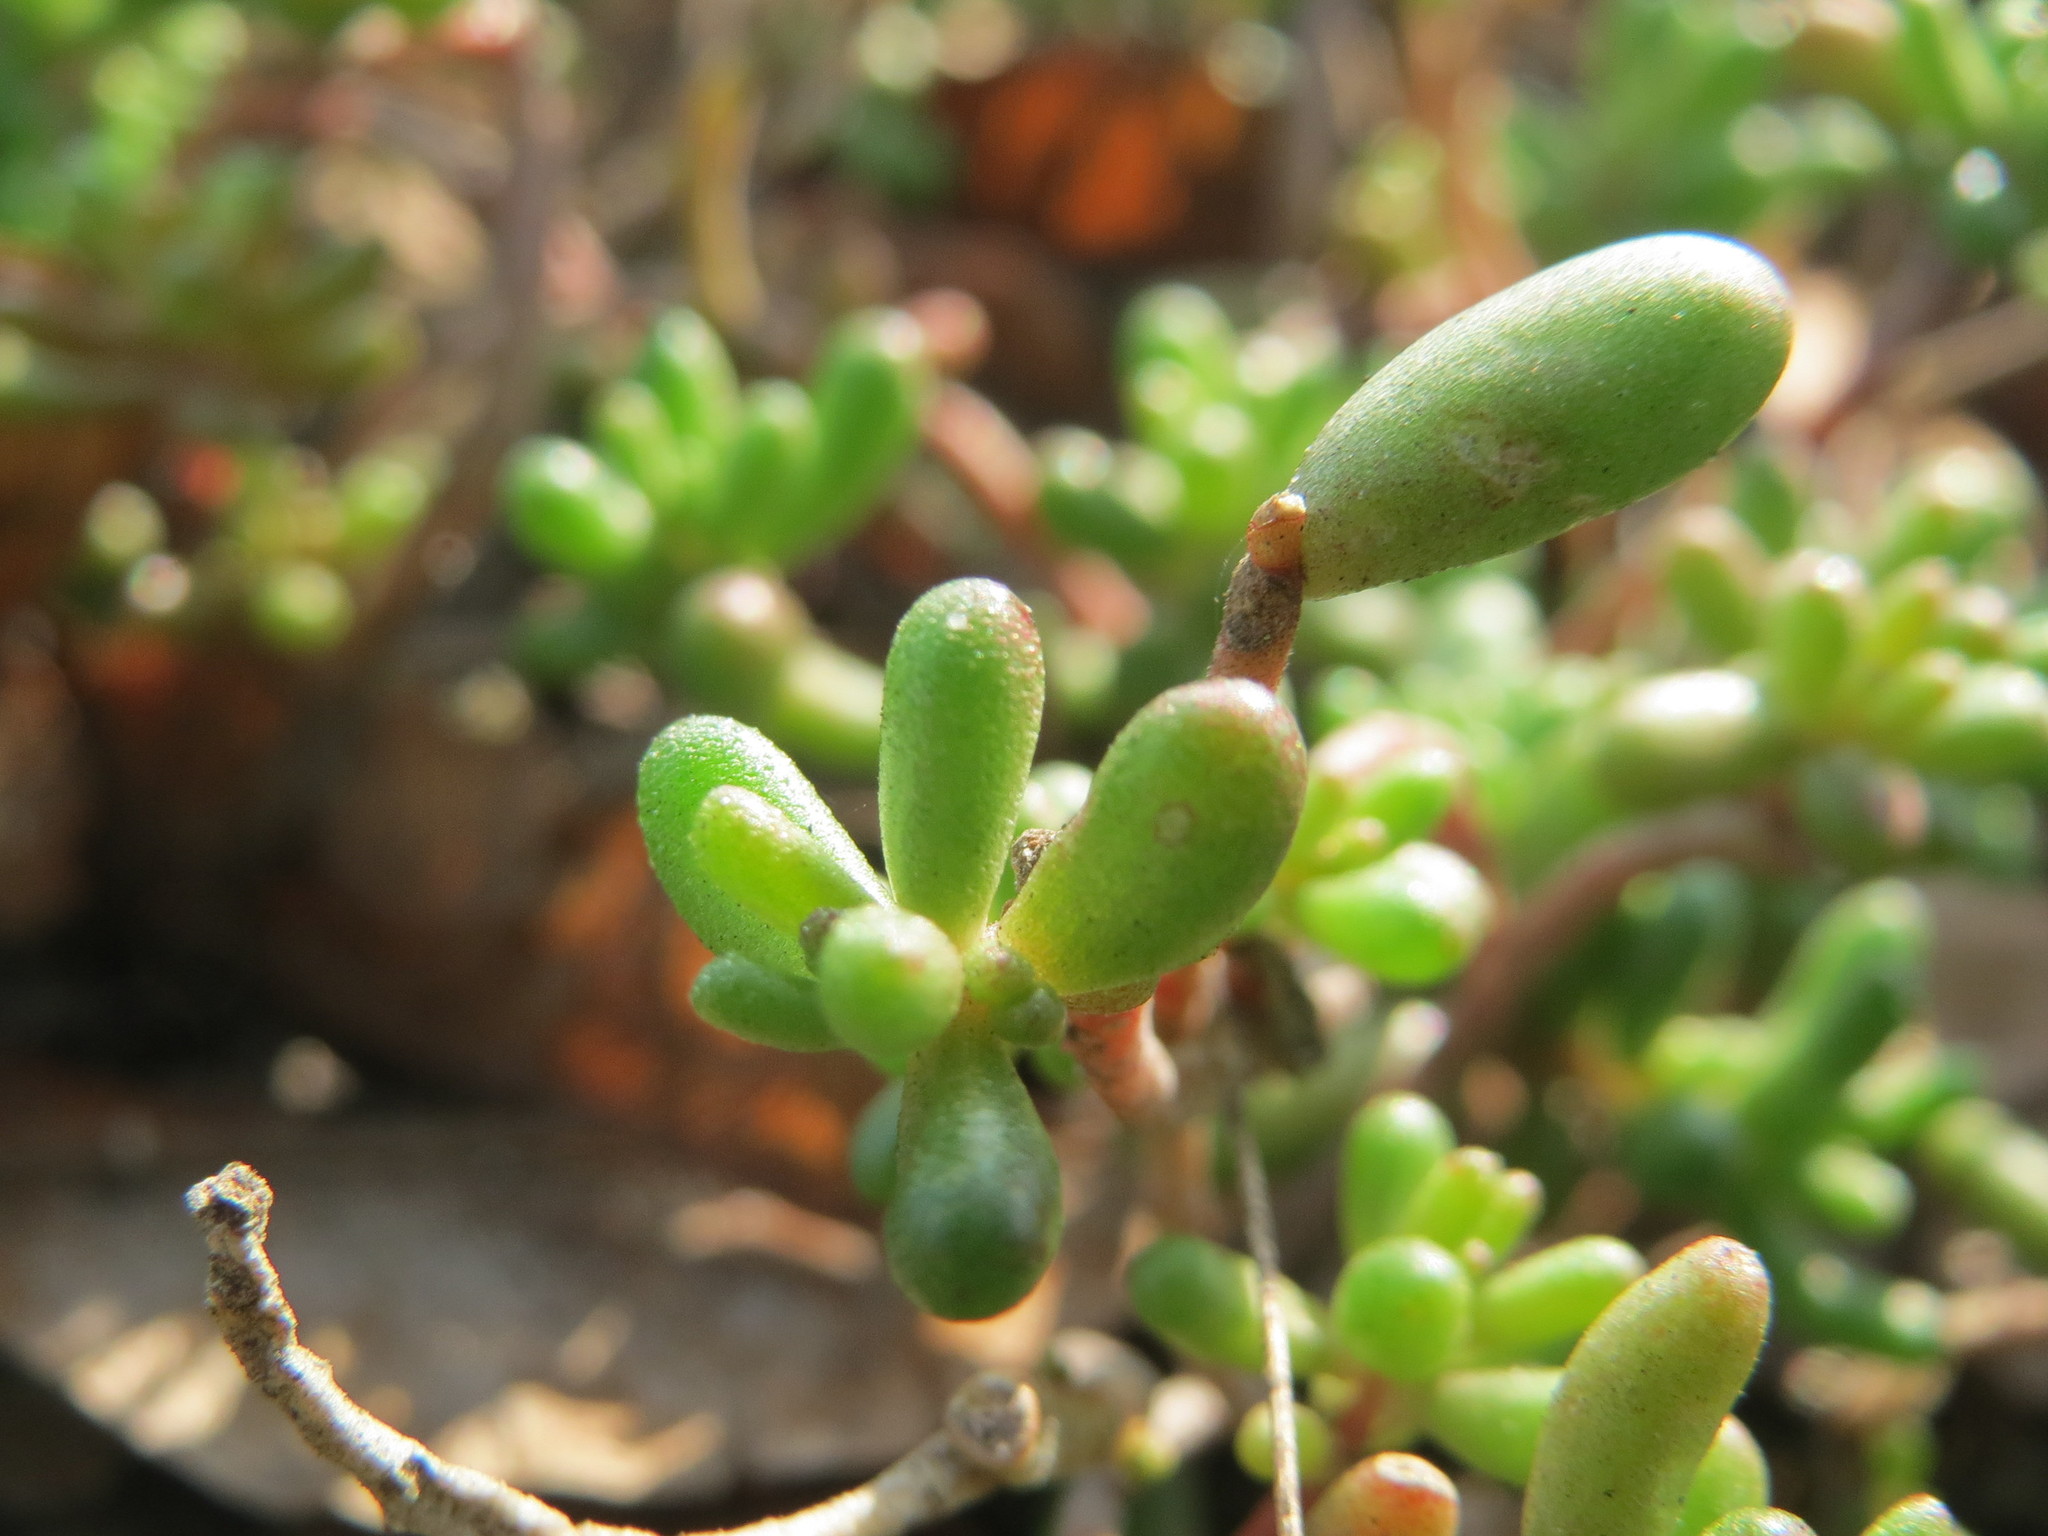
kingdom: Plantae
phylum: Tracheophyta
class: Magnoliopsida
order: Saxifragales
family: Crassulaceae
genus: Sedum
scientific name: Sedum album
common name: White stonecrop
